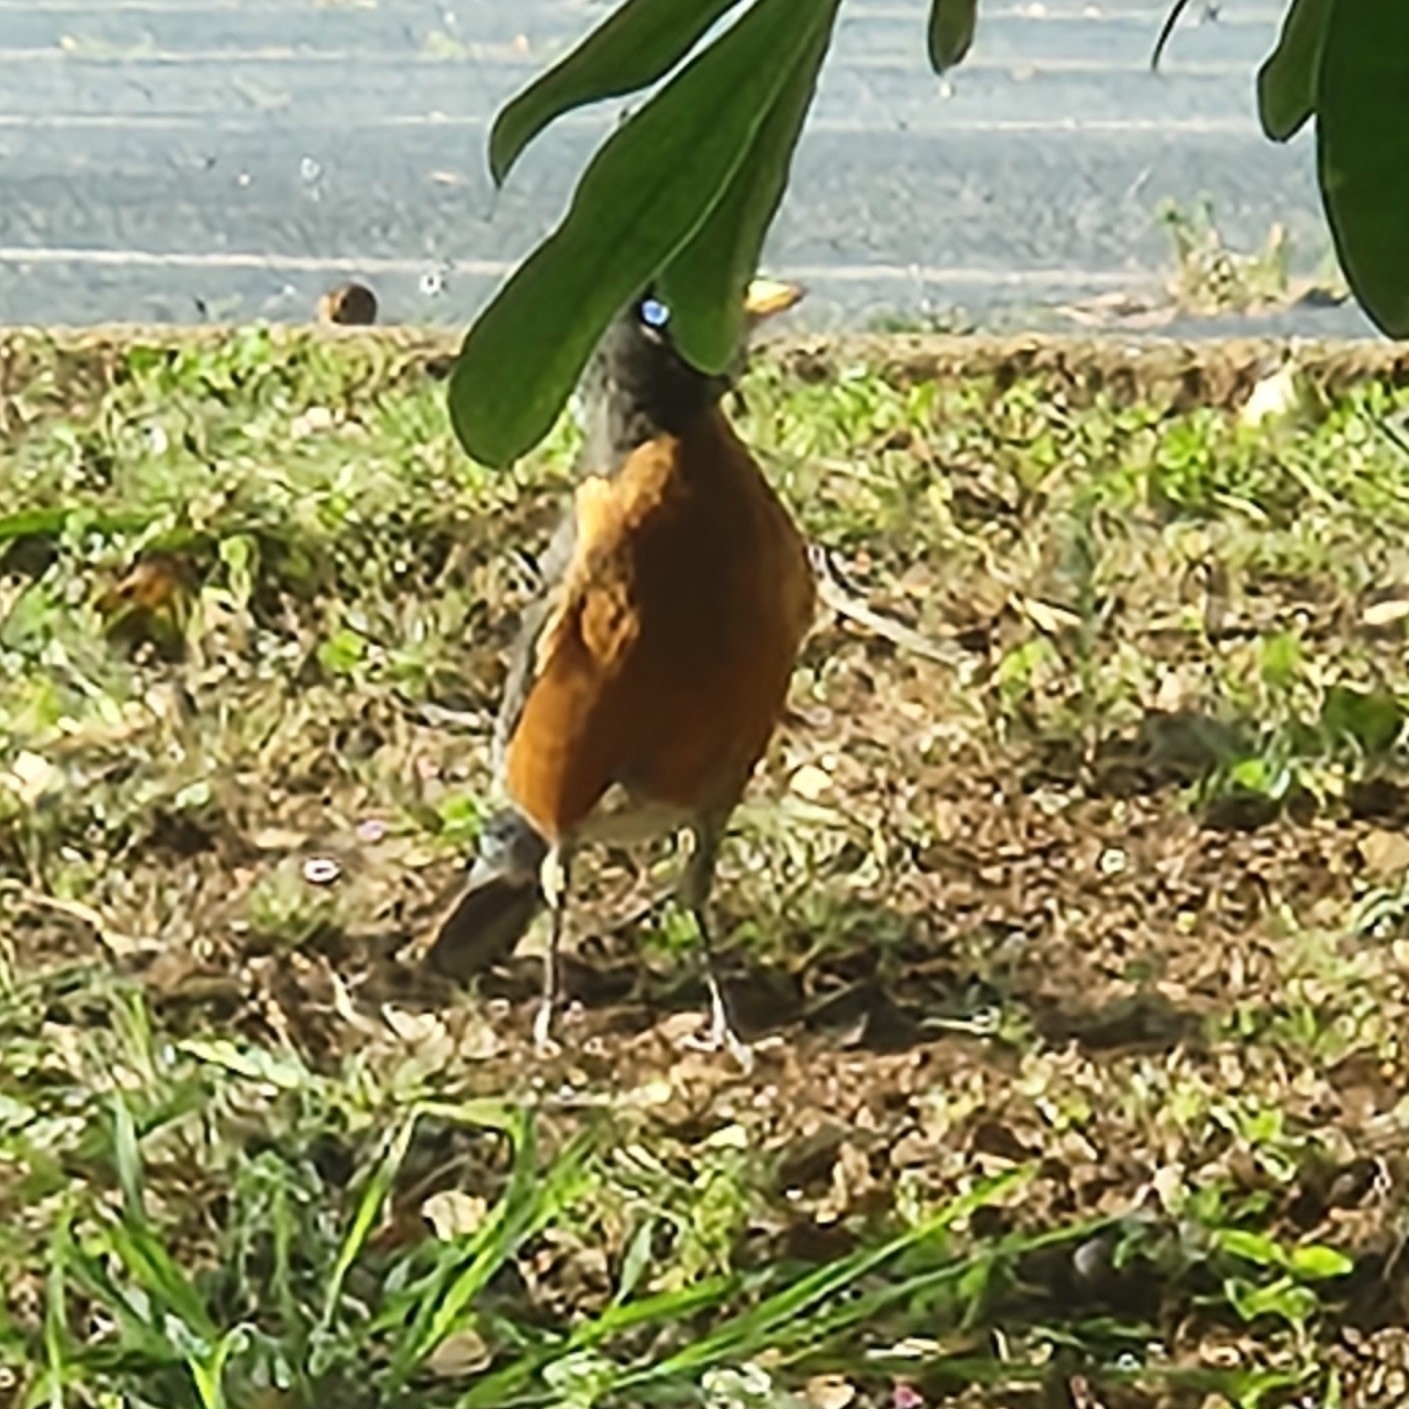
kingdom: Animalia
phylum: Chordata
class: Aves
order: Passeriformes
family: Turdidae
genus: Turdus
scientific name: Turdus migratorius
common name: American robin
